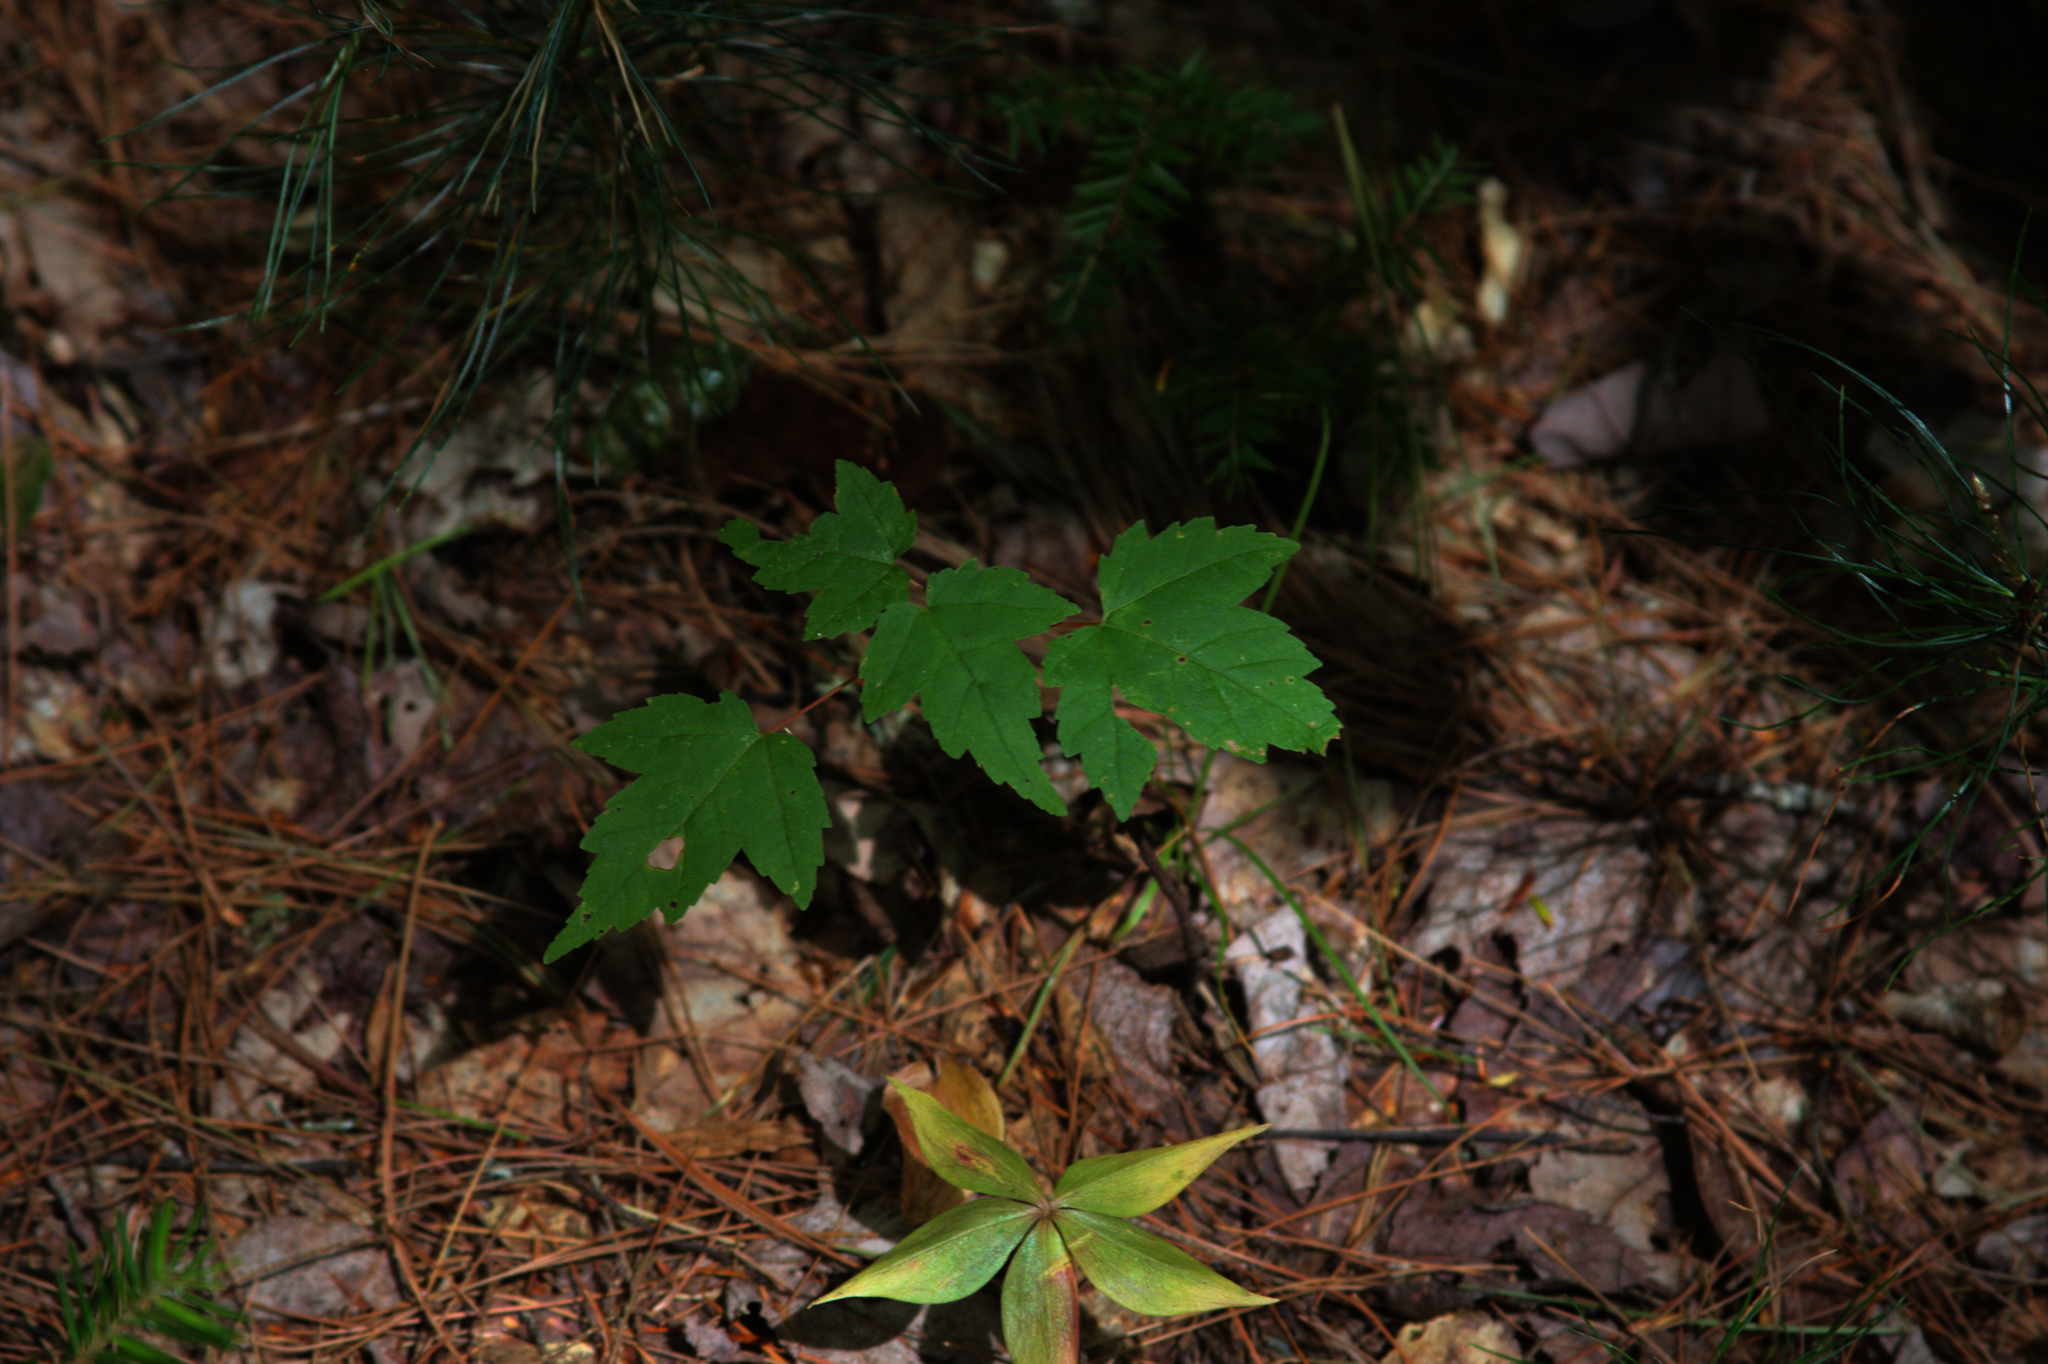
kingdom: Plantae
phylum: Tracheophyta
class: Magnoliopsida
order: Sapindales
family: Sapindaceae
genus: Acer
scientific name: Acer rubrum
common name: Red maple
